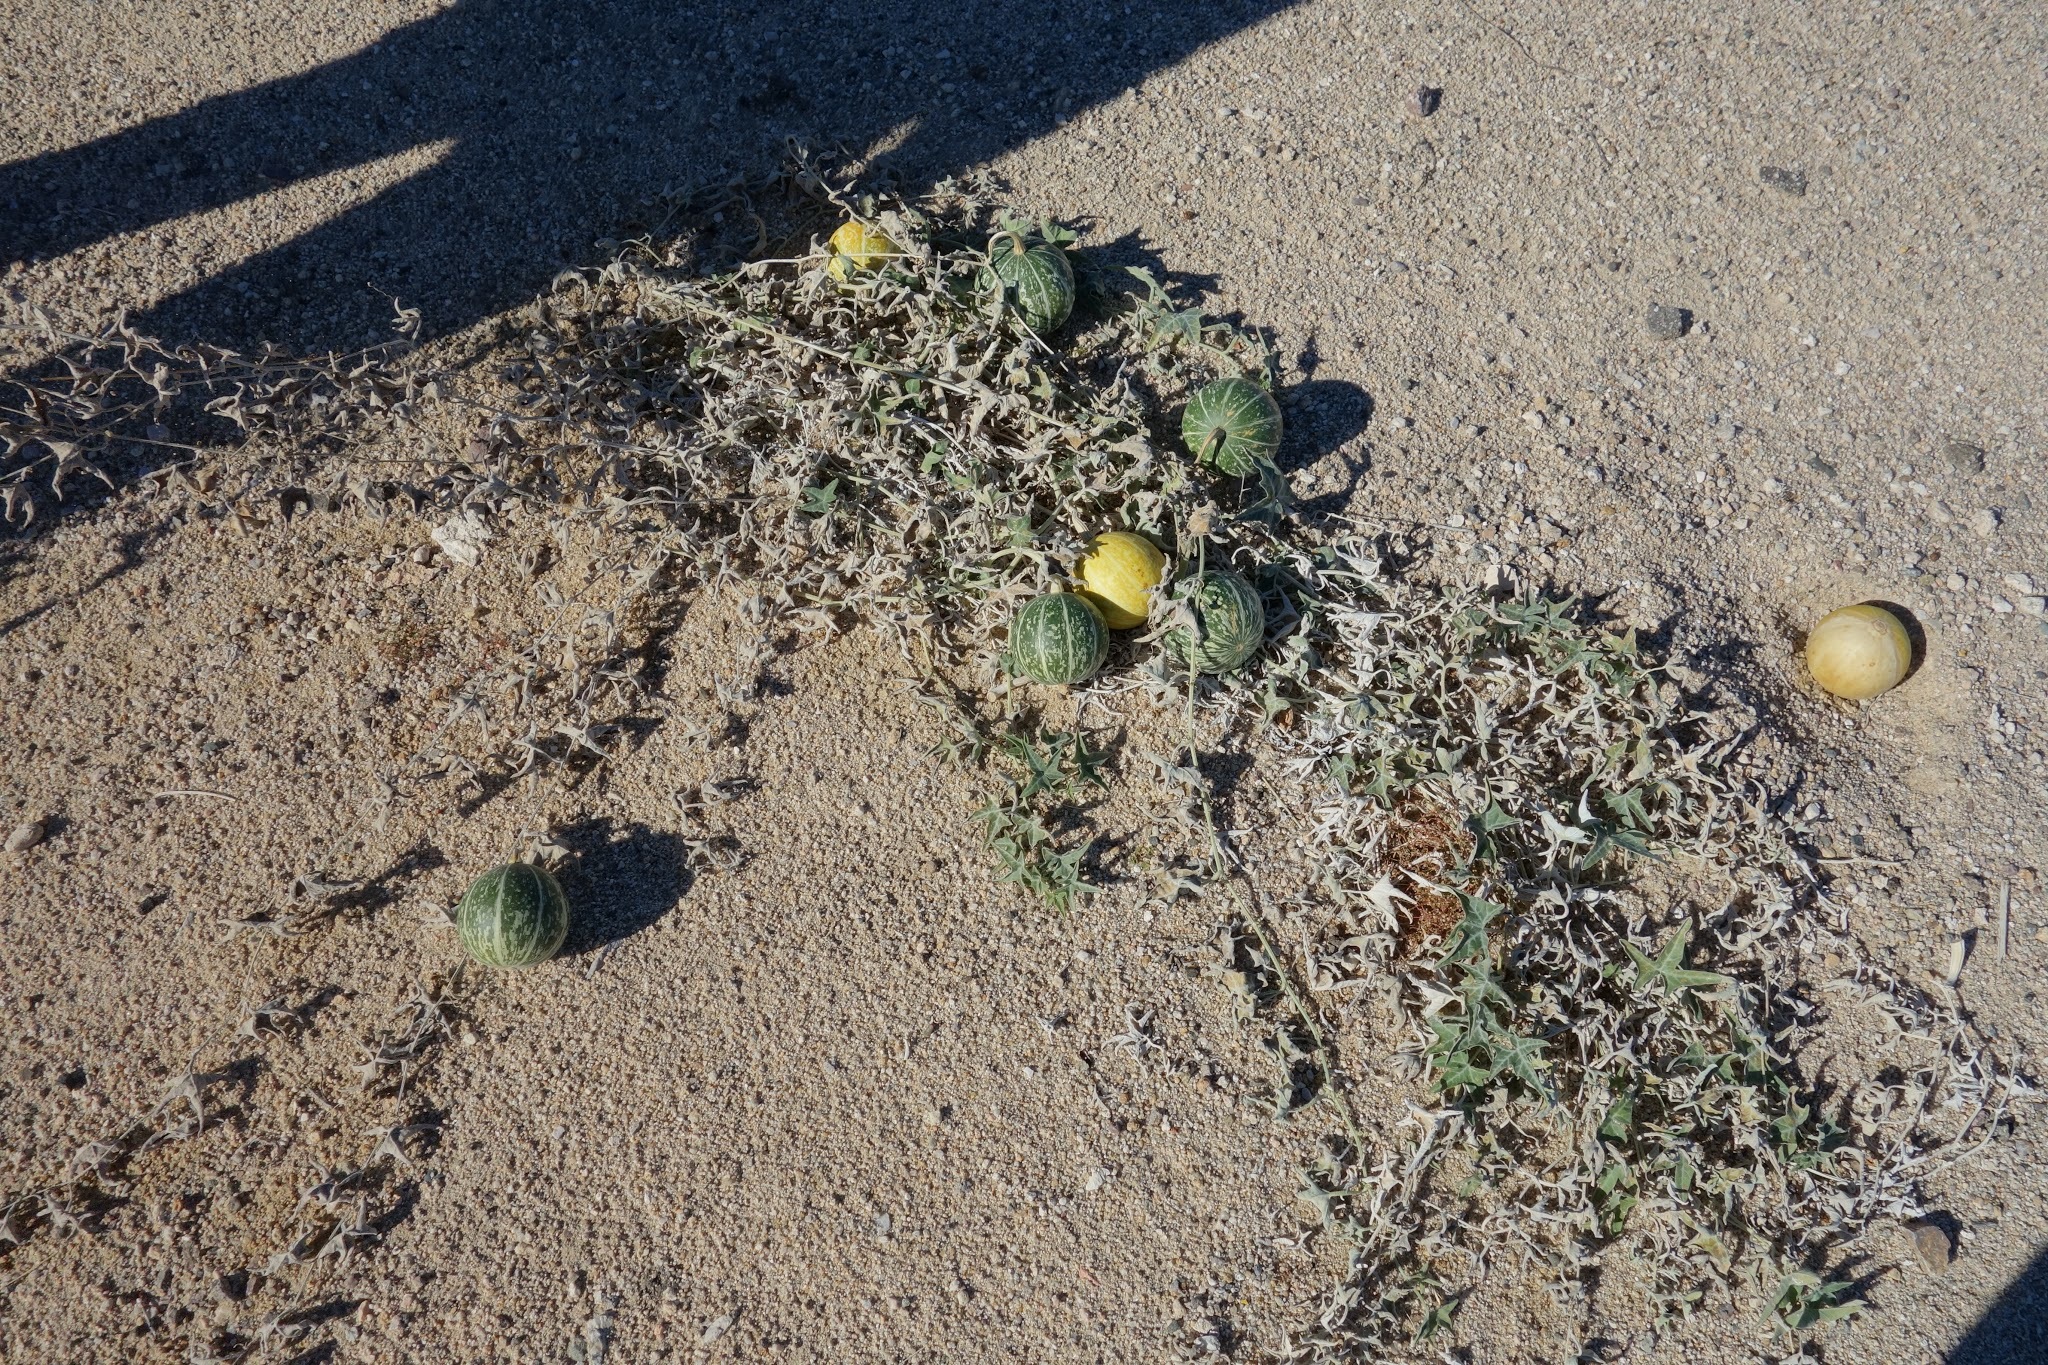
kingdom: Plantae
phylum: Tracheophyta
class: Magnoliopsida
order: Cucurbitales
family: Cucurbitaceae
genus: Cucurbita
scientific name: Cucurbita palmata
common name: Coyote-melon
